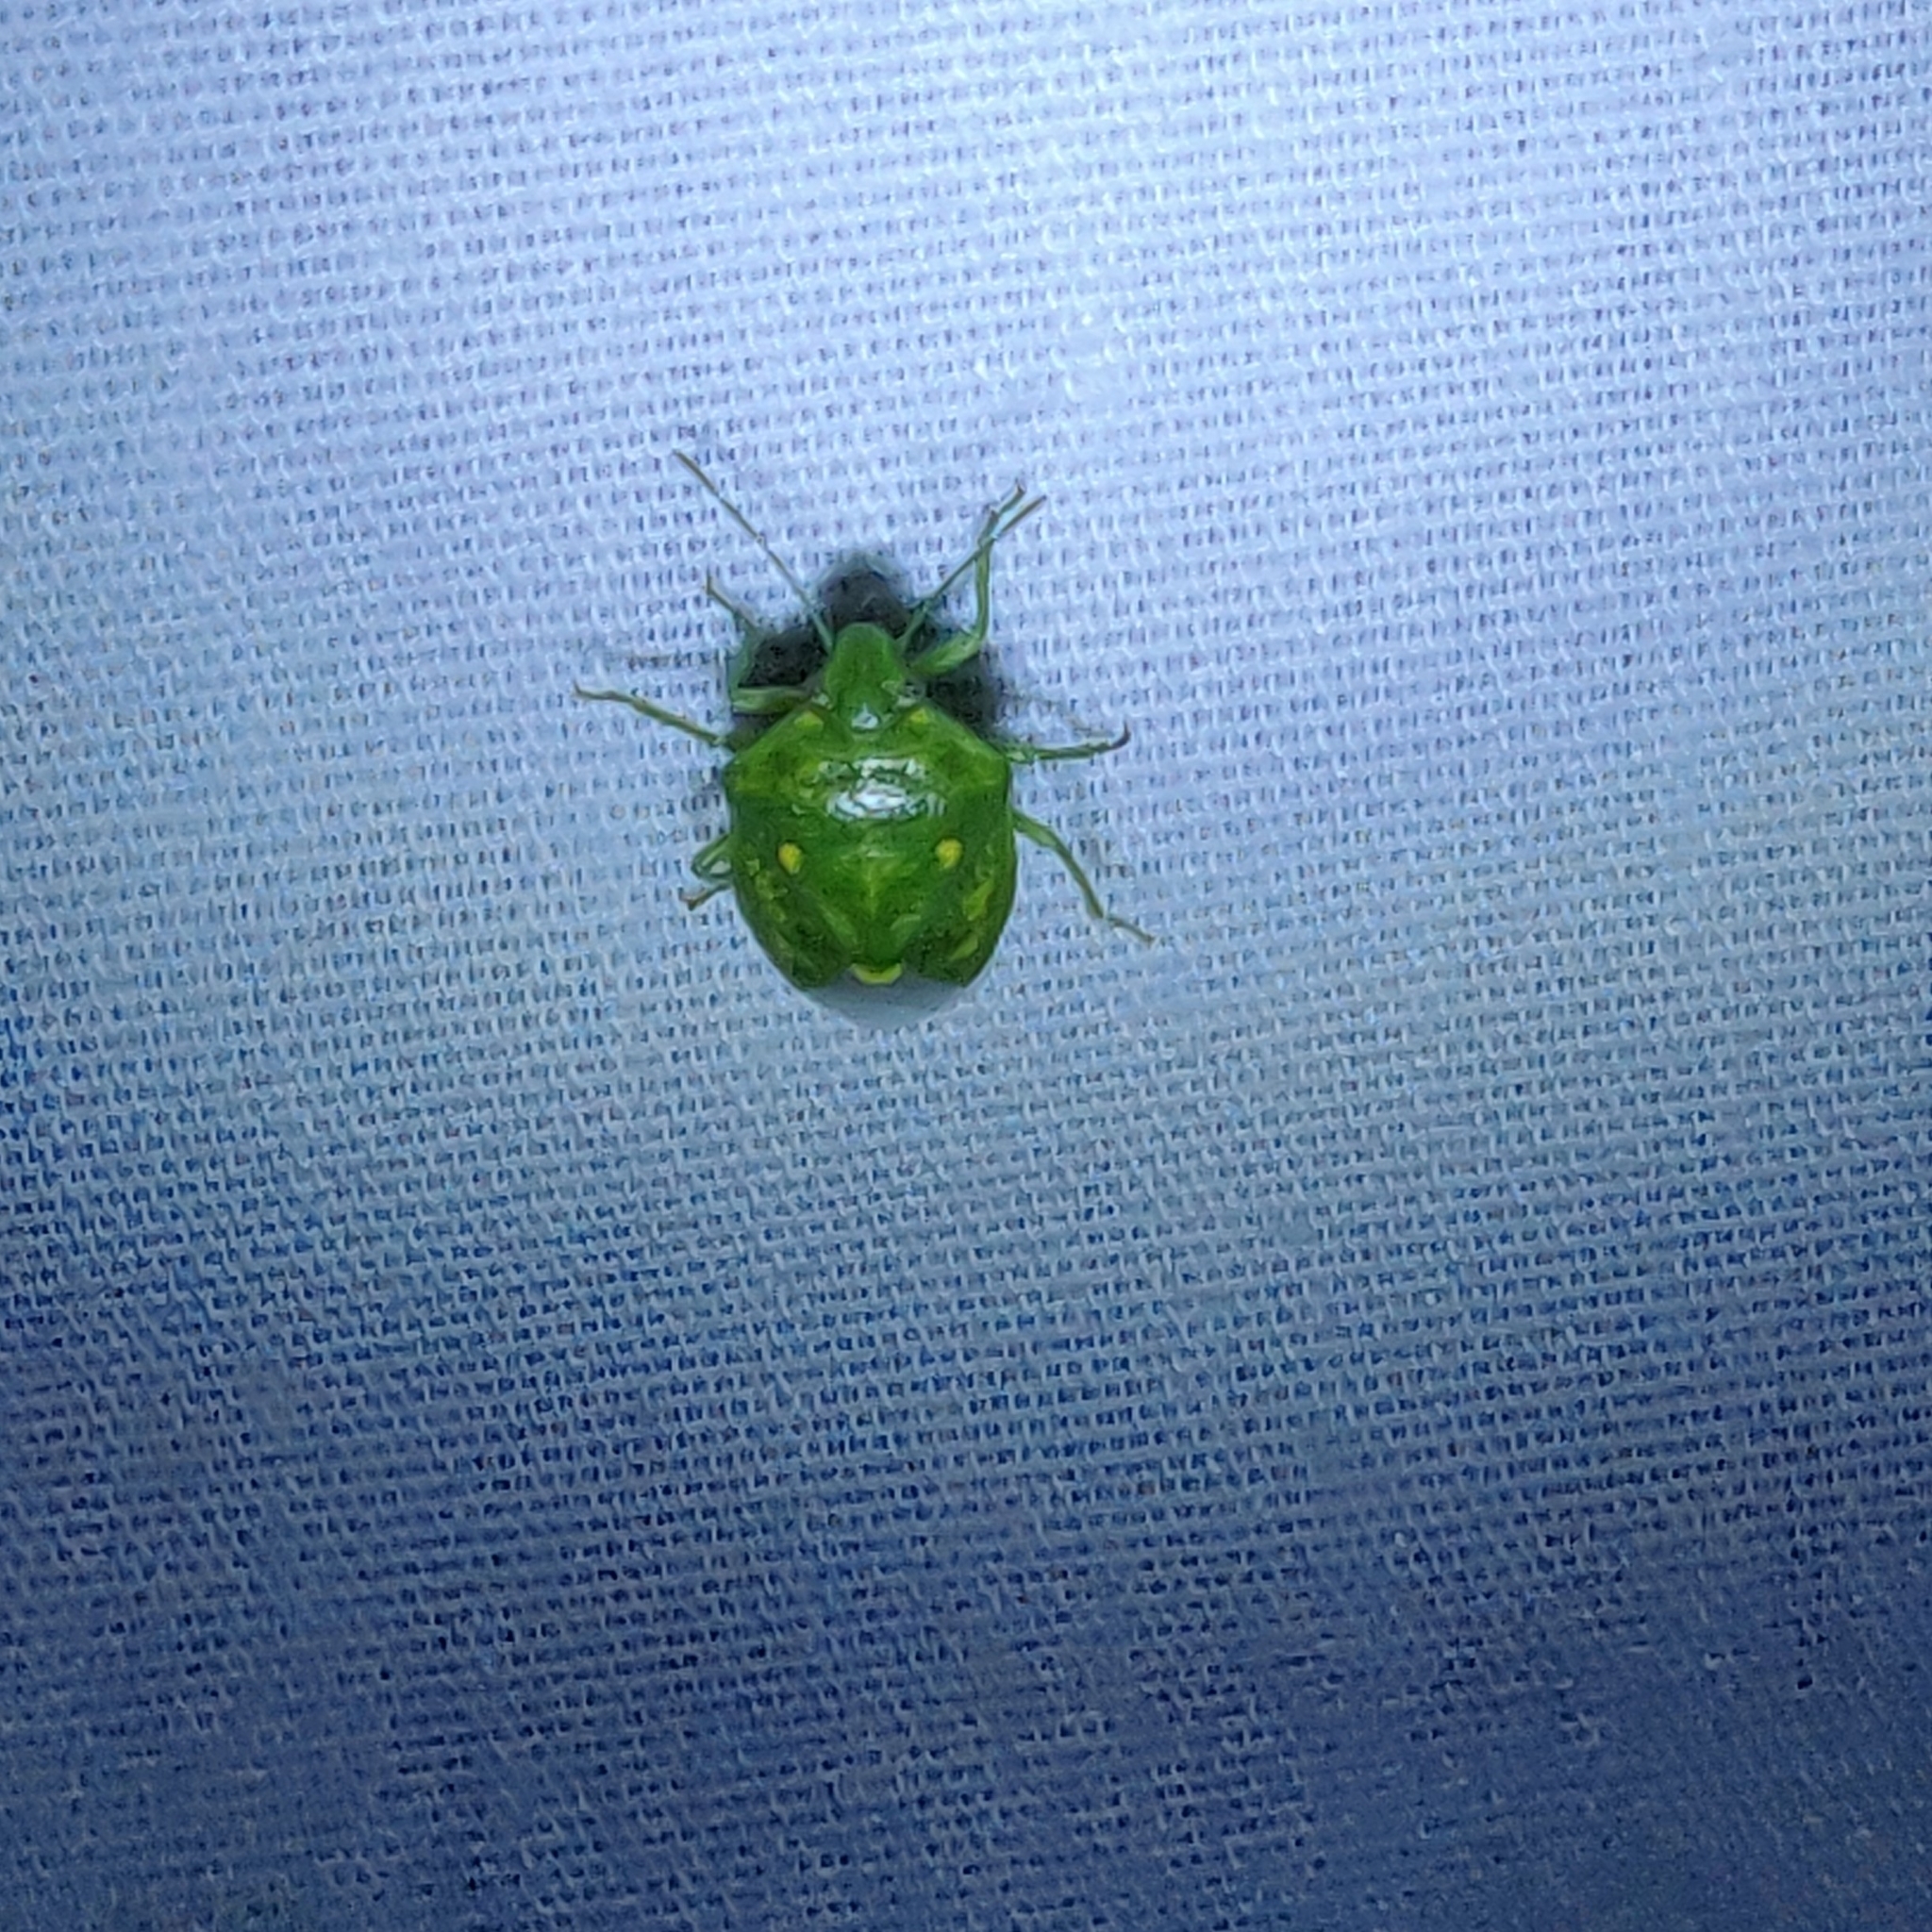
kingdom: Animalia
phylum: Arthropoda
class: Insecta
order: Hemiptera
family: Pentatomidae
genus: Banasa
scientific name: Banasa euchlora
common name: Cedar berry bug
